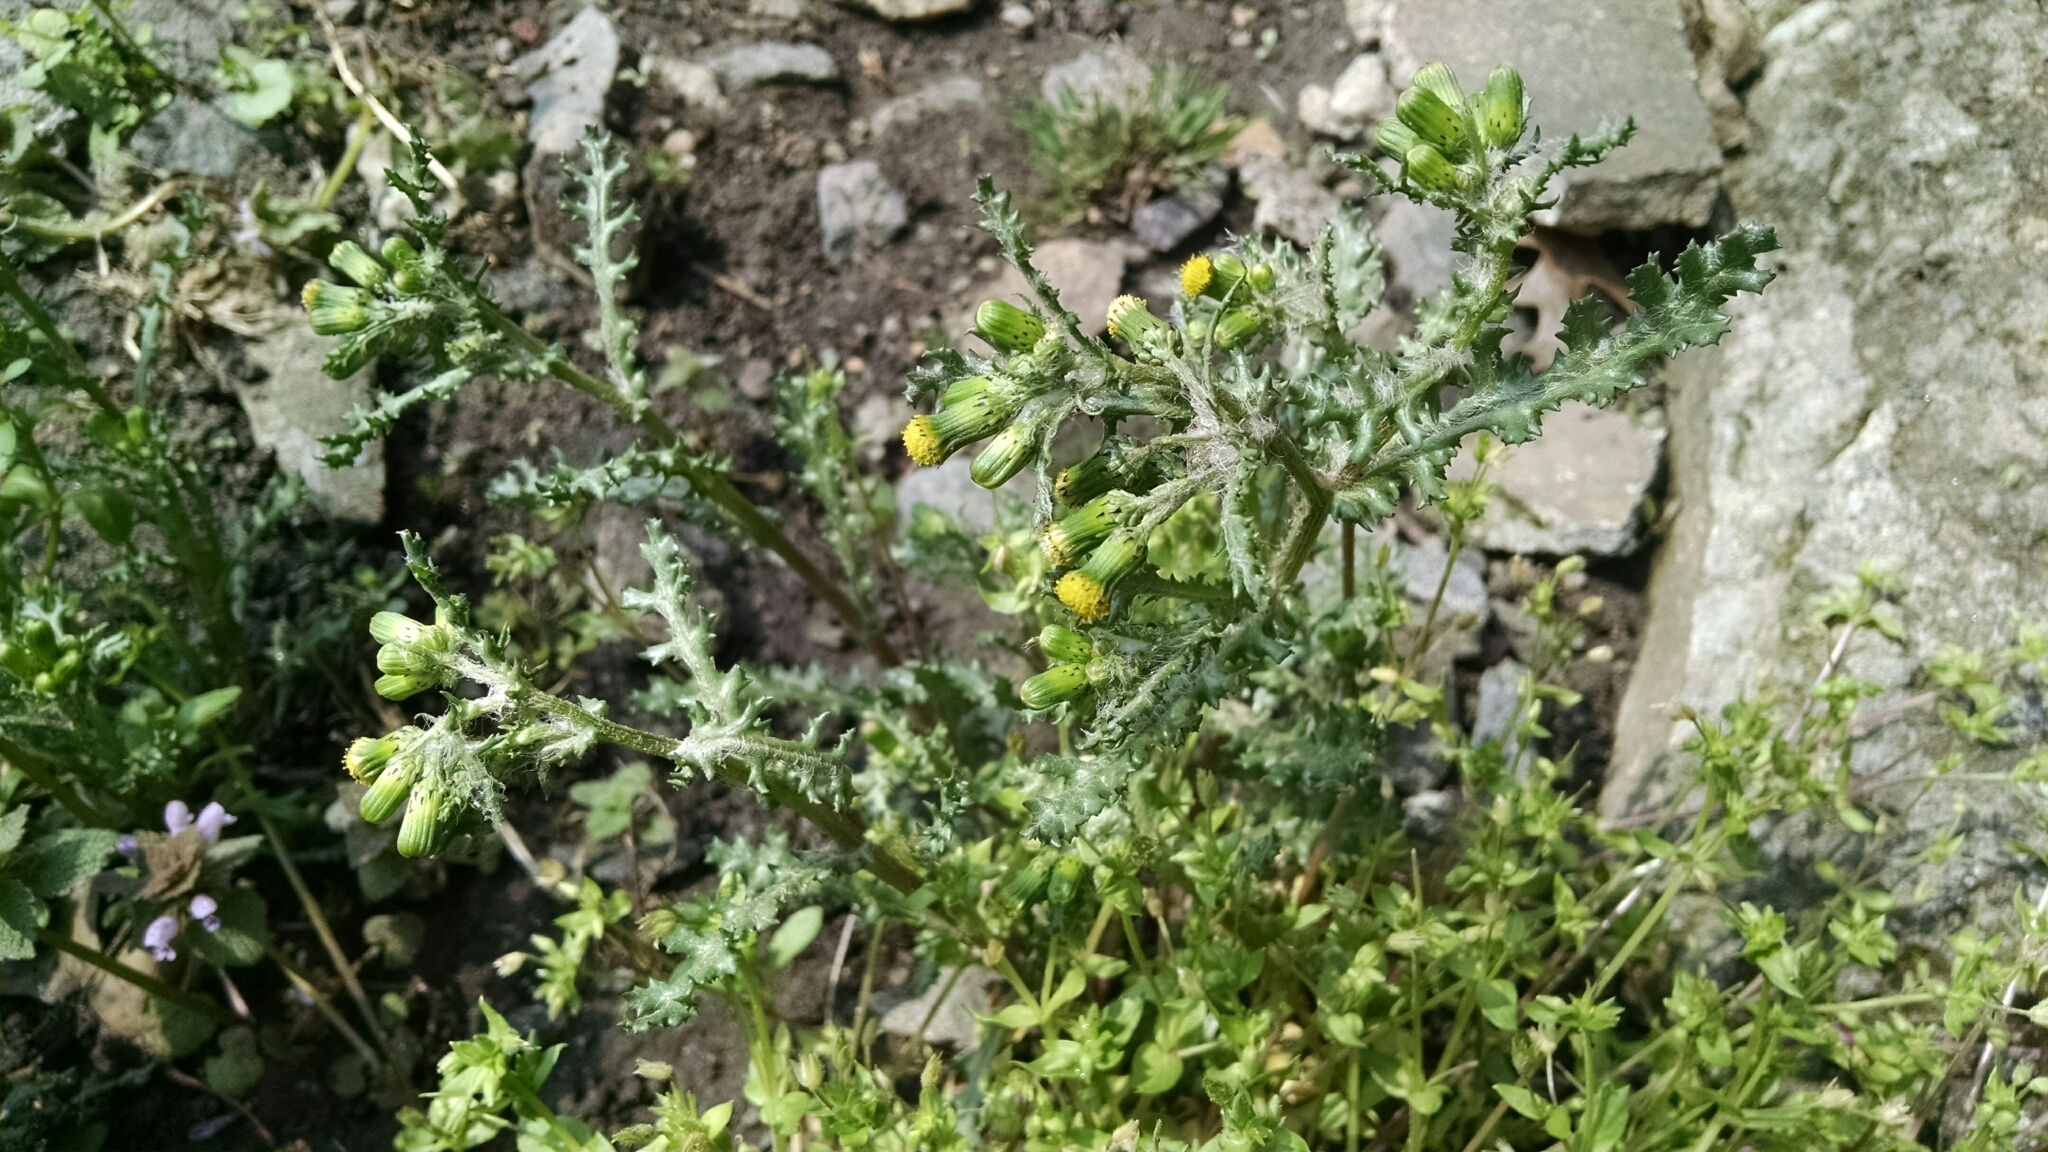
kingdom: Plantae
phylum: Tracheophyta
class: Magnoliopsida
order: Asterales
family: Asteraceae
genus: Senecio
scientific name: Senecio vulgaris
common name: Old-man-in-the-spring
